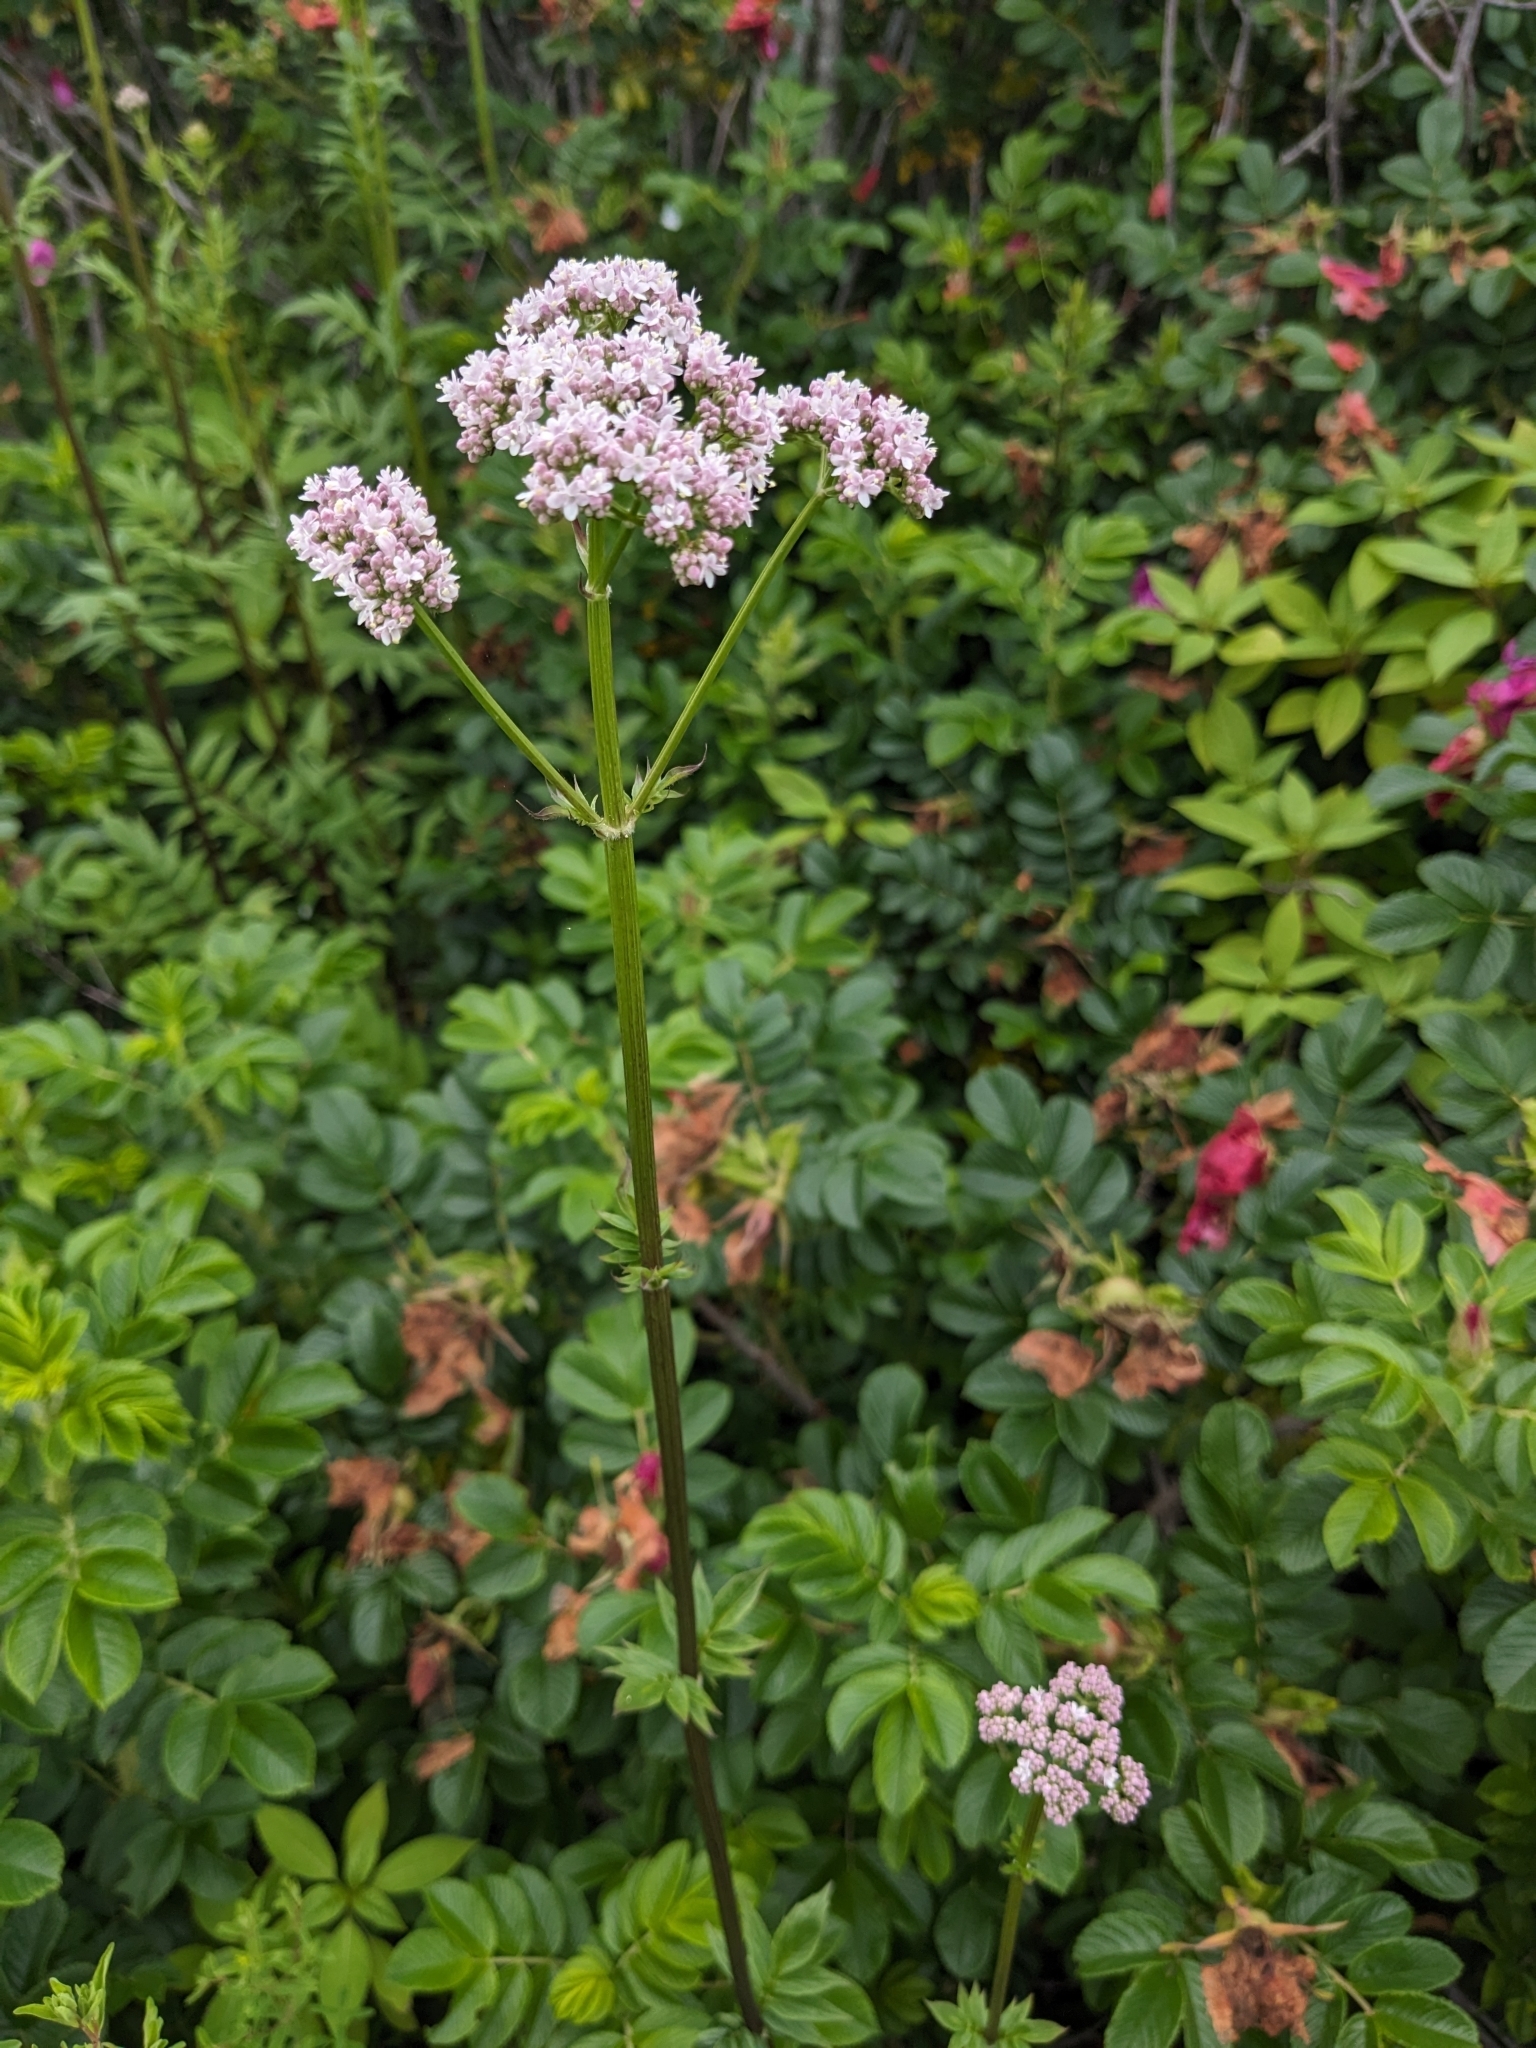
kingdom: Plantae
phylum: Tracheophyta
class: Magnoliopsida
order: Dipsacales
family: Caprifoliaceae
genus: Valeriana
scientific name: Valeriana officinalis
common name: Common valerian
